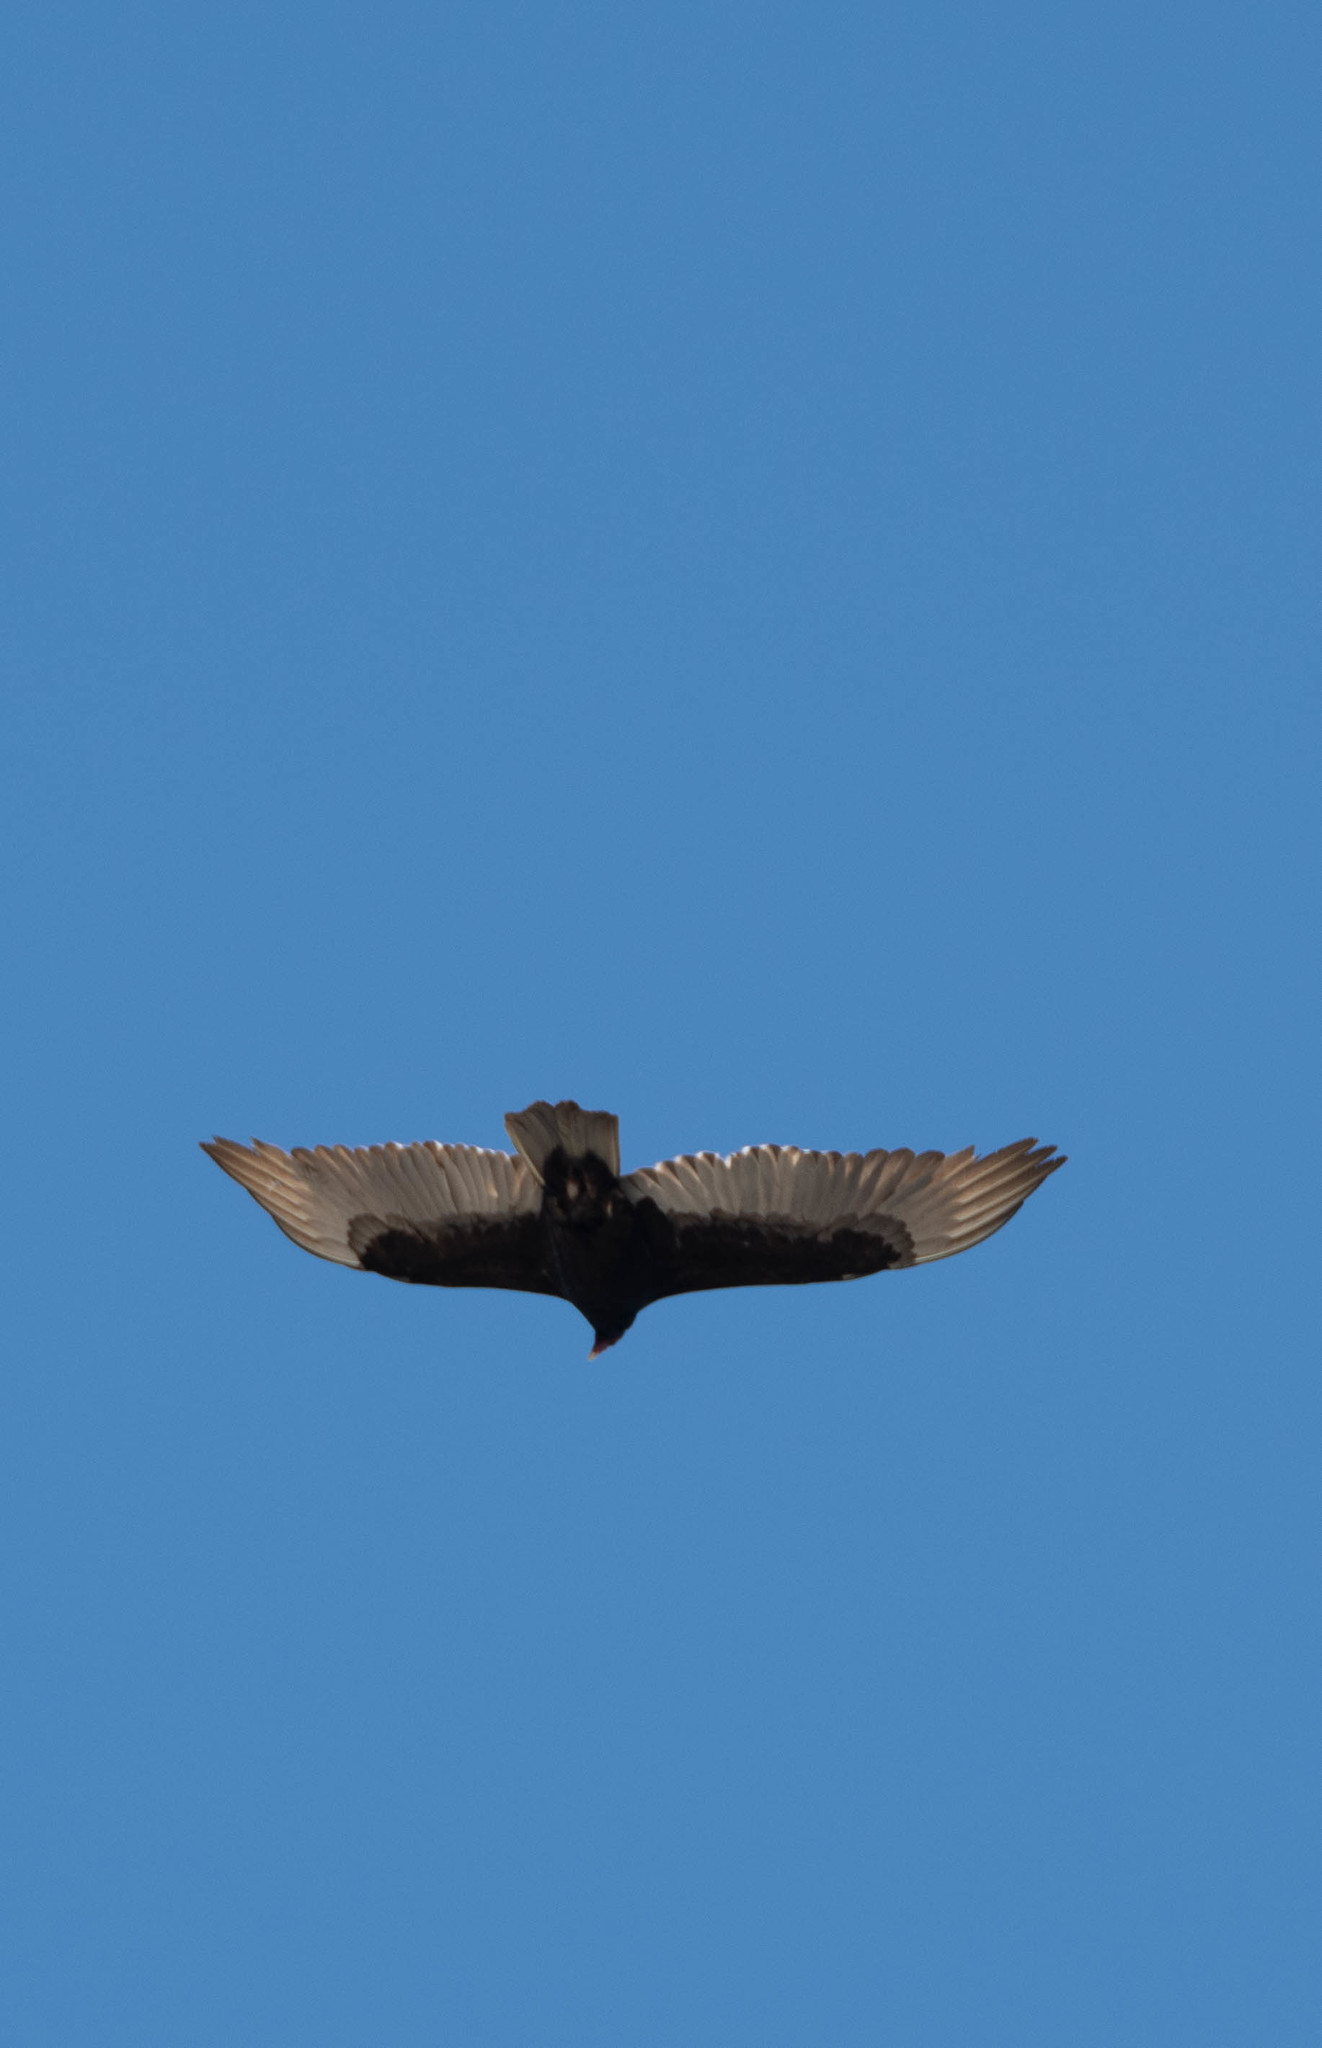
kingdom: Animalia
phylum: Chordata
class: Aves
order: Accipitriformes
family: Cathartidae
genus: Cathartes
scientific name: Cathartes aura
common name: Turkey vulture
